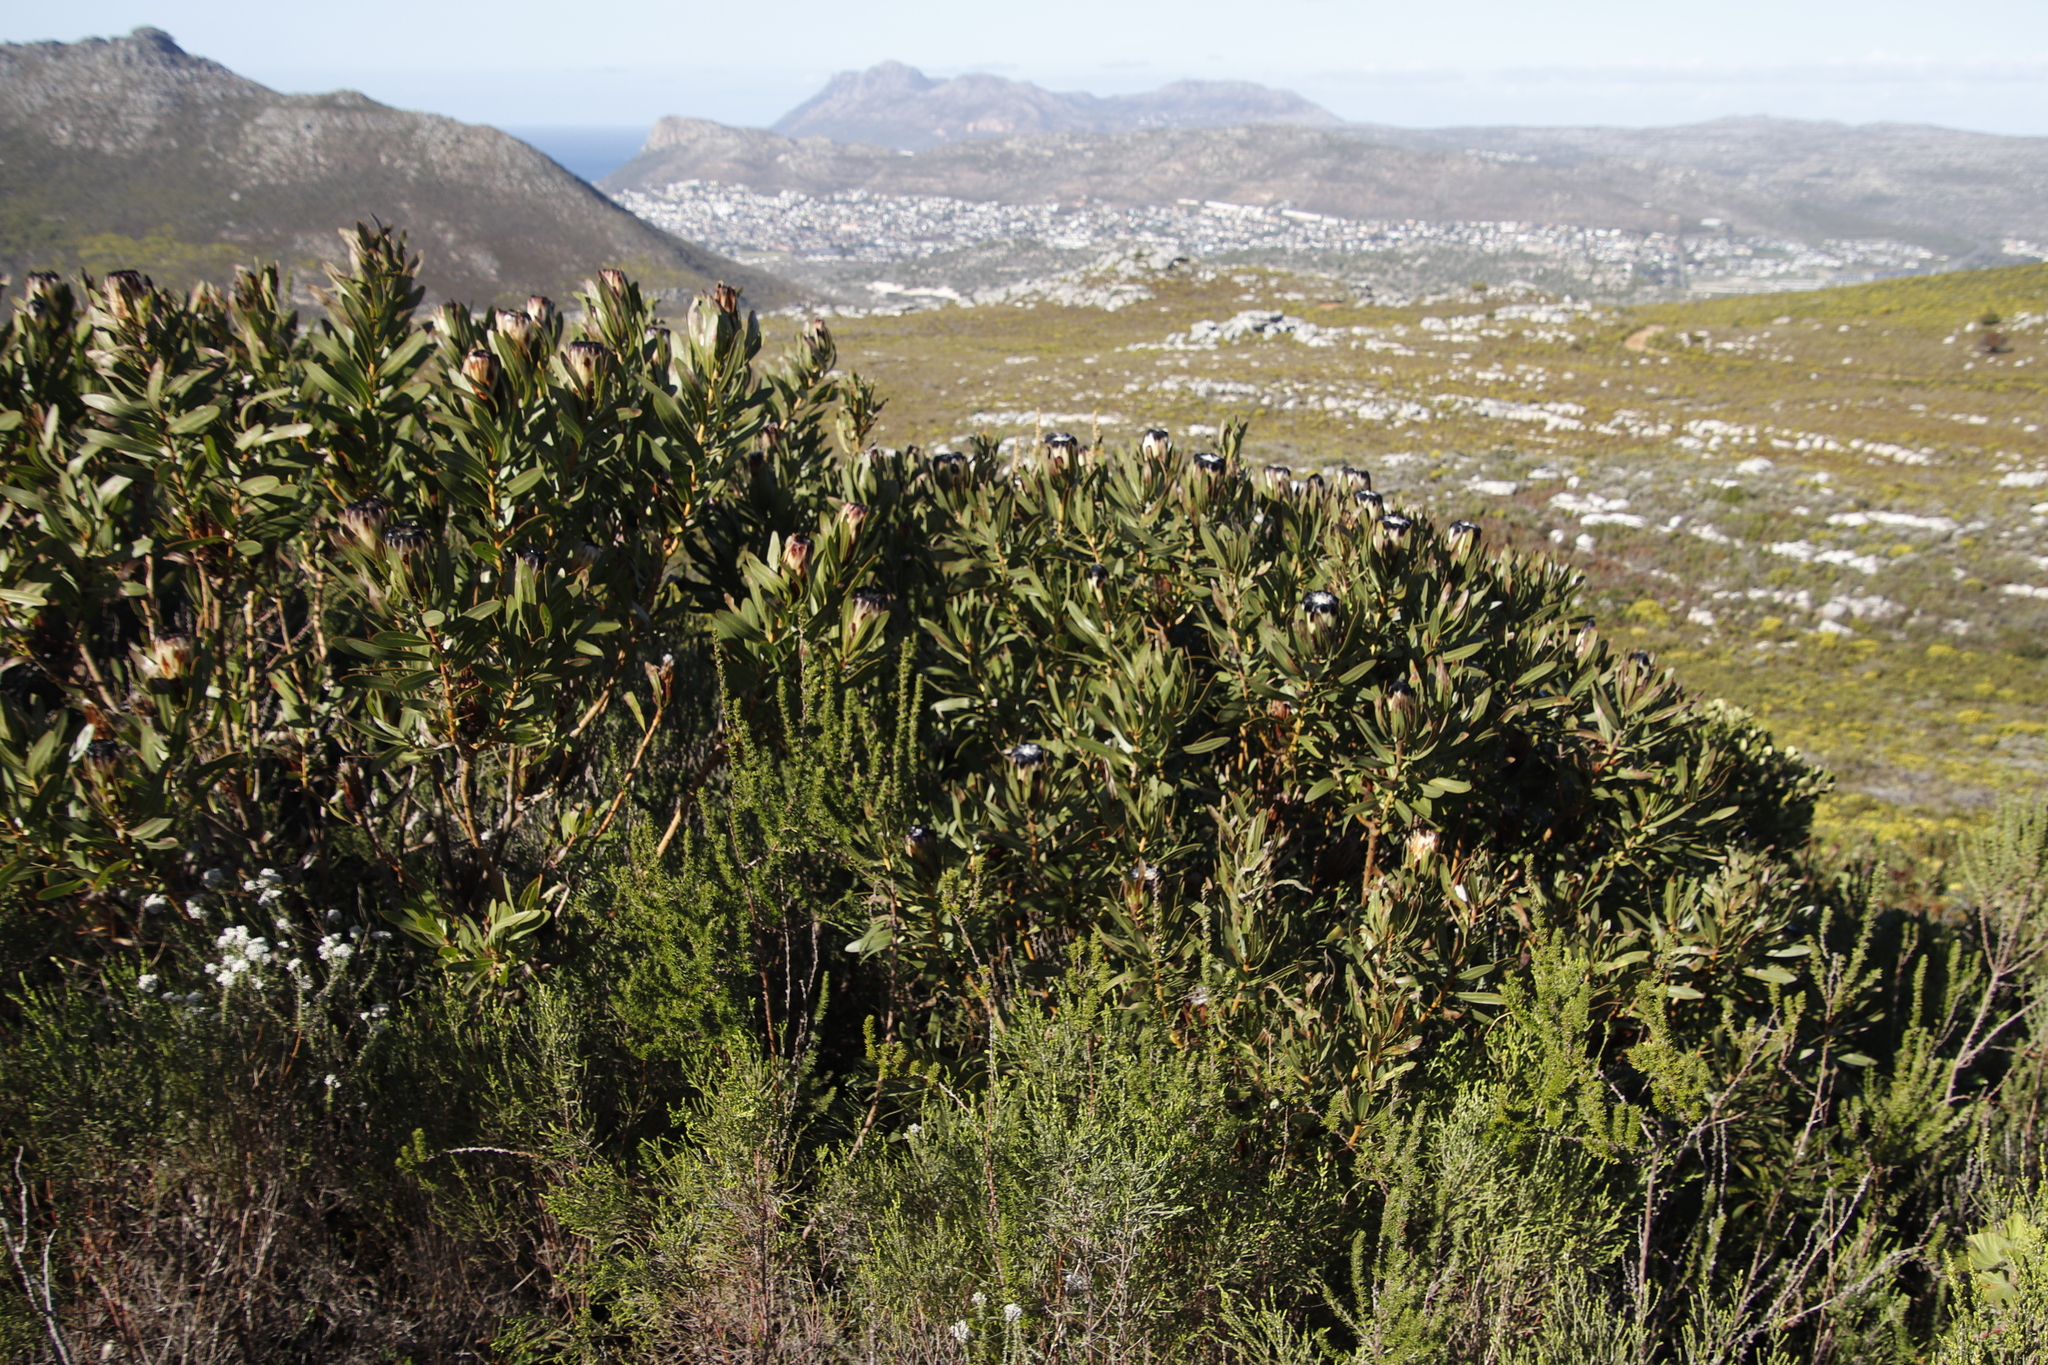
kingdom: Plantae
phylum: Tracheophyta
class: Magnoliopsida
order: Proteales
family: Proteaceae
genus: Protea
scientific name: Protea lepidocarpodendron
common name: Black-bearded protea
